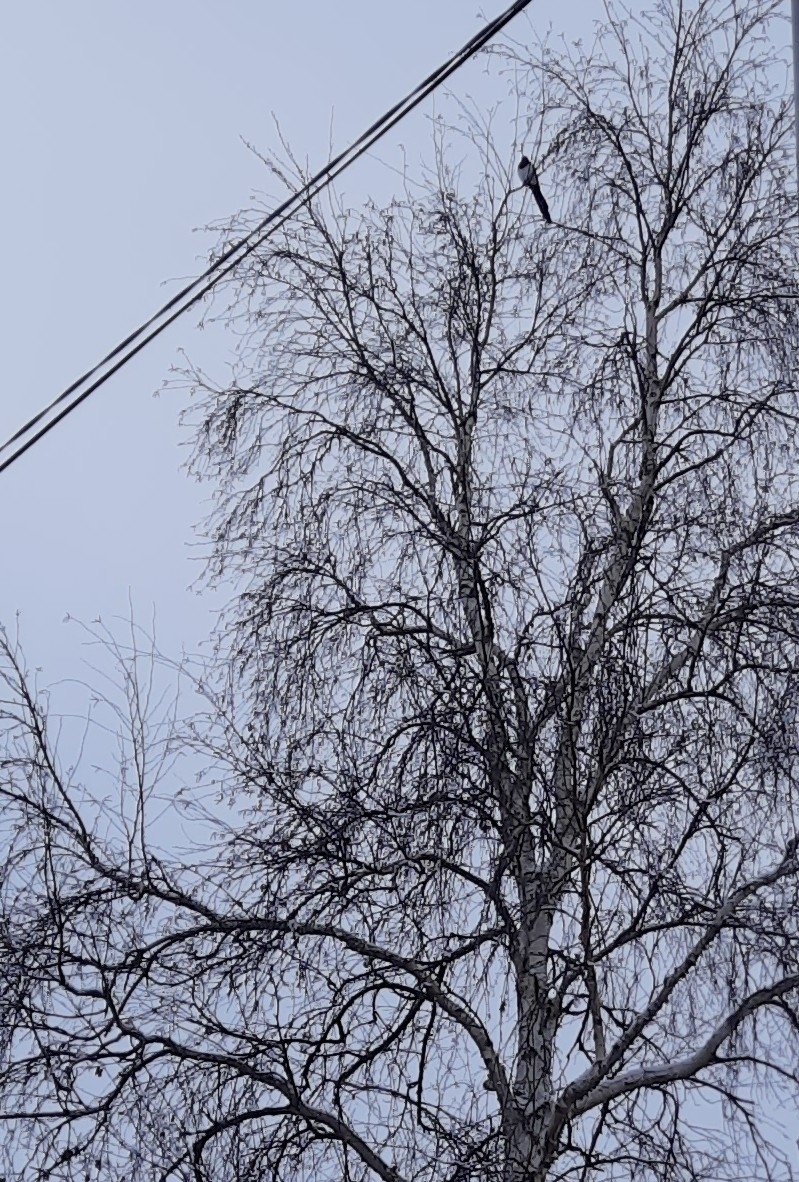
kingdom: Animalia
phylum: Chordata
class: Aves
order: Passeriformes
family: Corvidae
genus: Pica
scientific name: Pica pica
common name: Eurasian magpie
